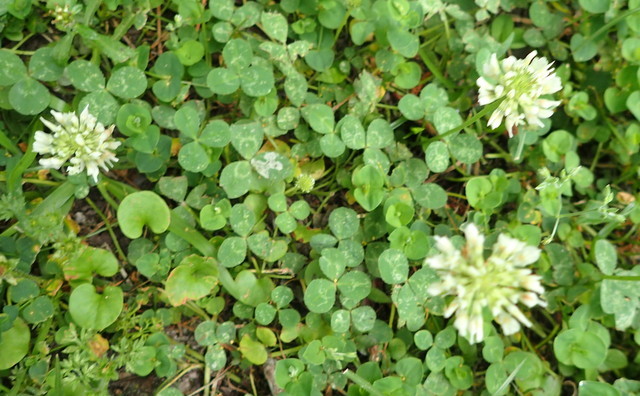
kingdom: Plantae
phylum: Tracheophyta
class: Magnoliopsida
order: Fabales
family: Fabaceae
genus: Trifolium
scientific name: Trifolium repens
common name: White clover
